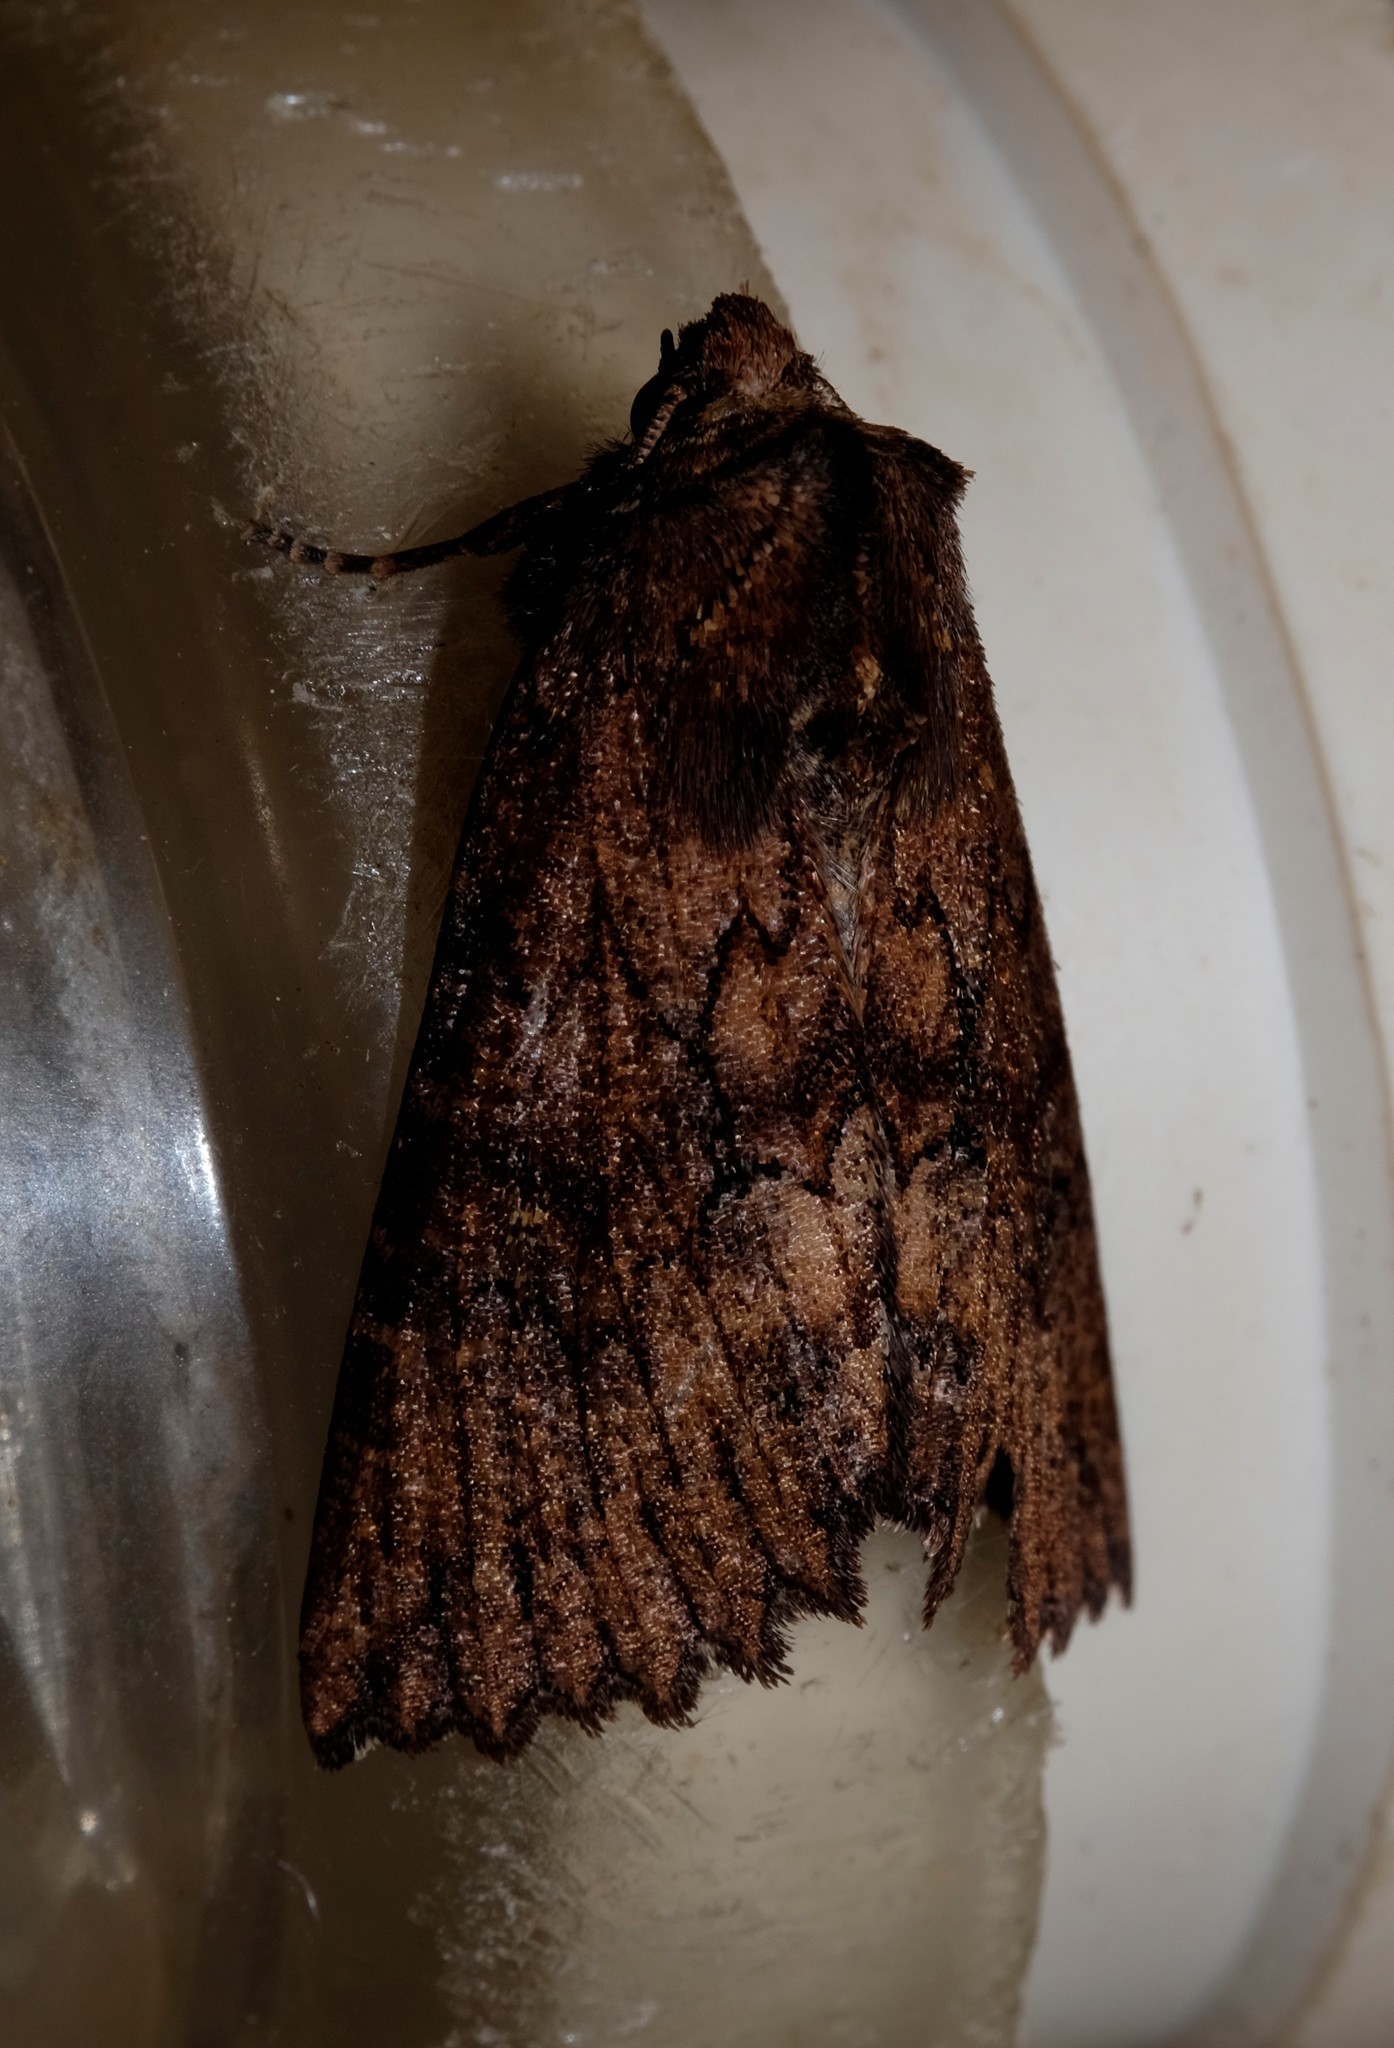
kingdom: Animalia
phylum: Arthropoda
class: Insecta
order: Lepidoptera
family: Geometridae
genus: Nisista
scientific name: Nisista serrata
